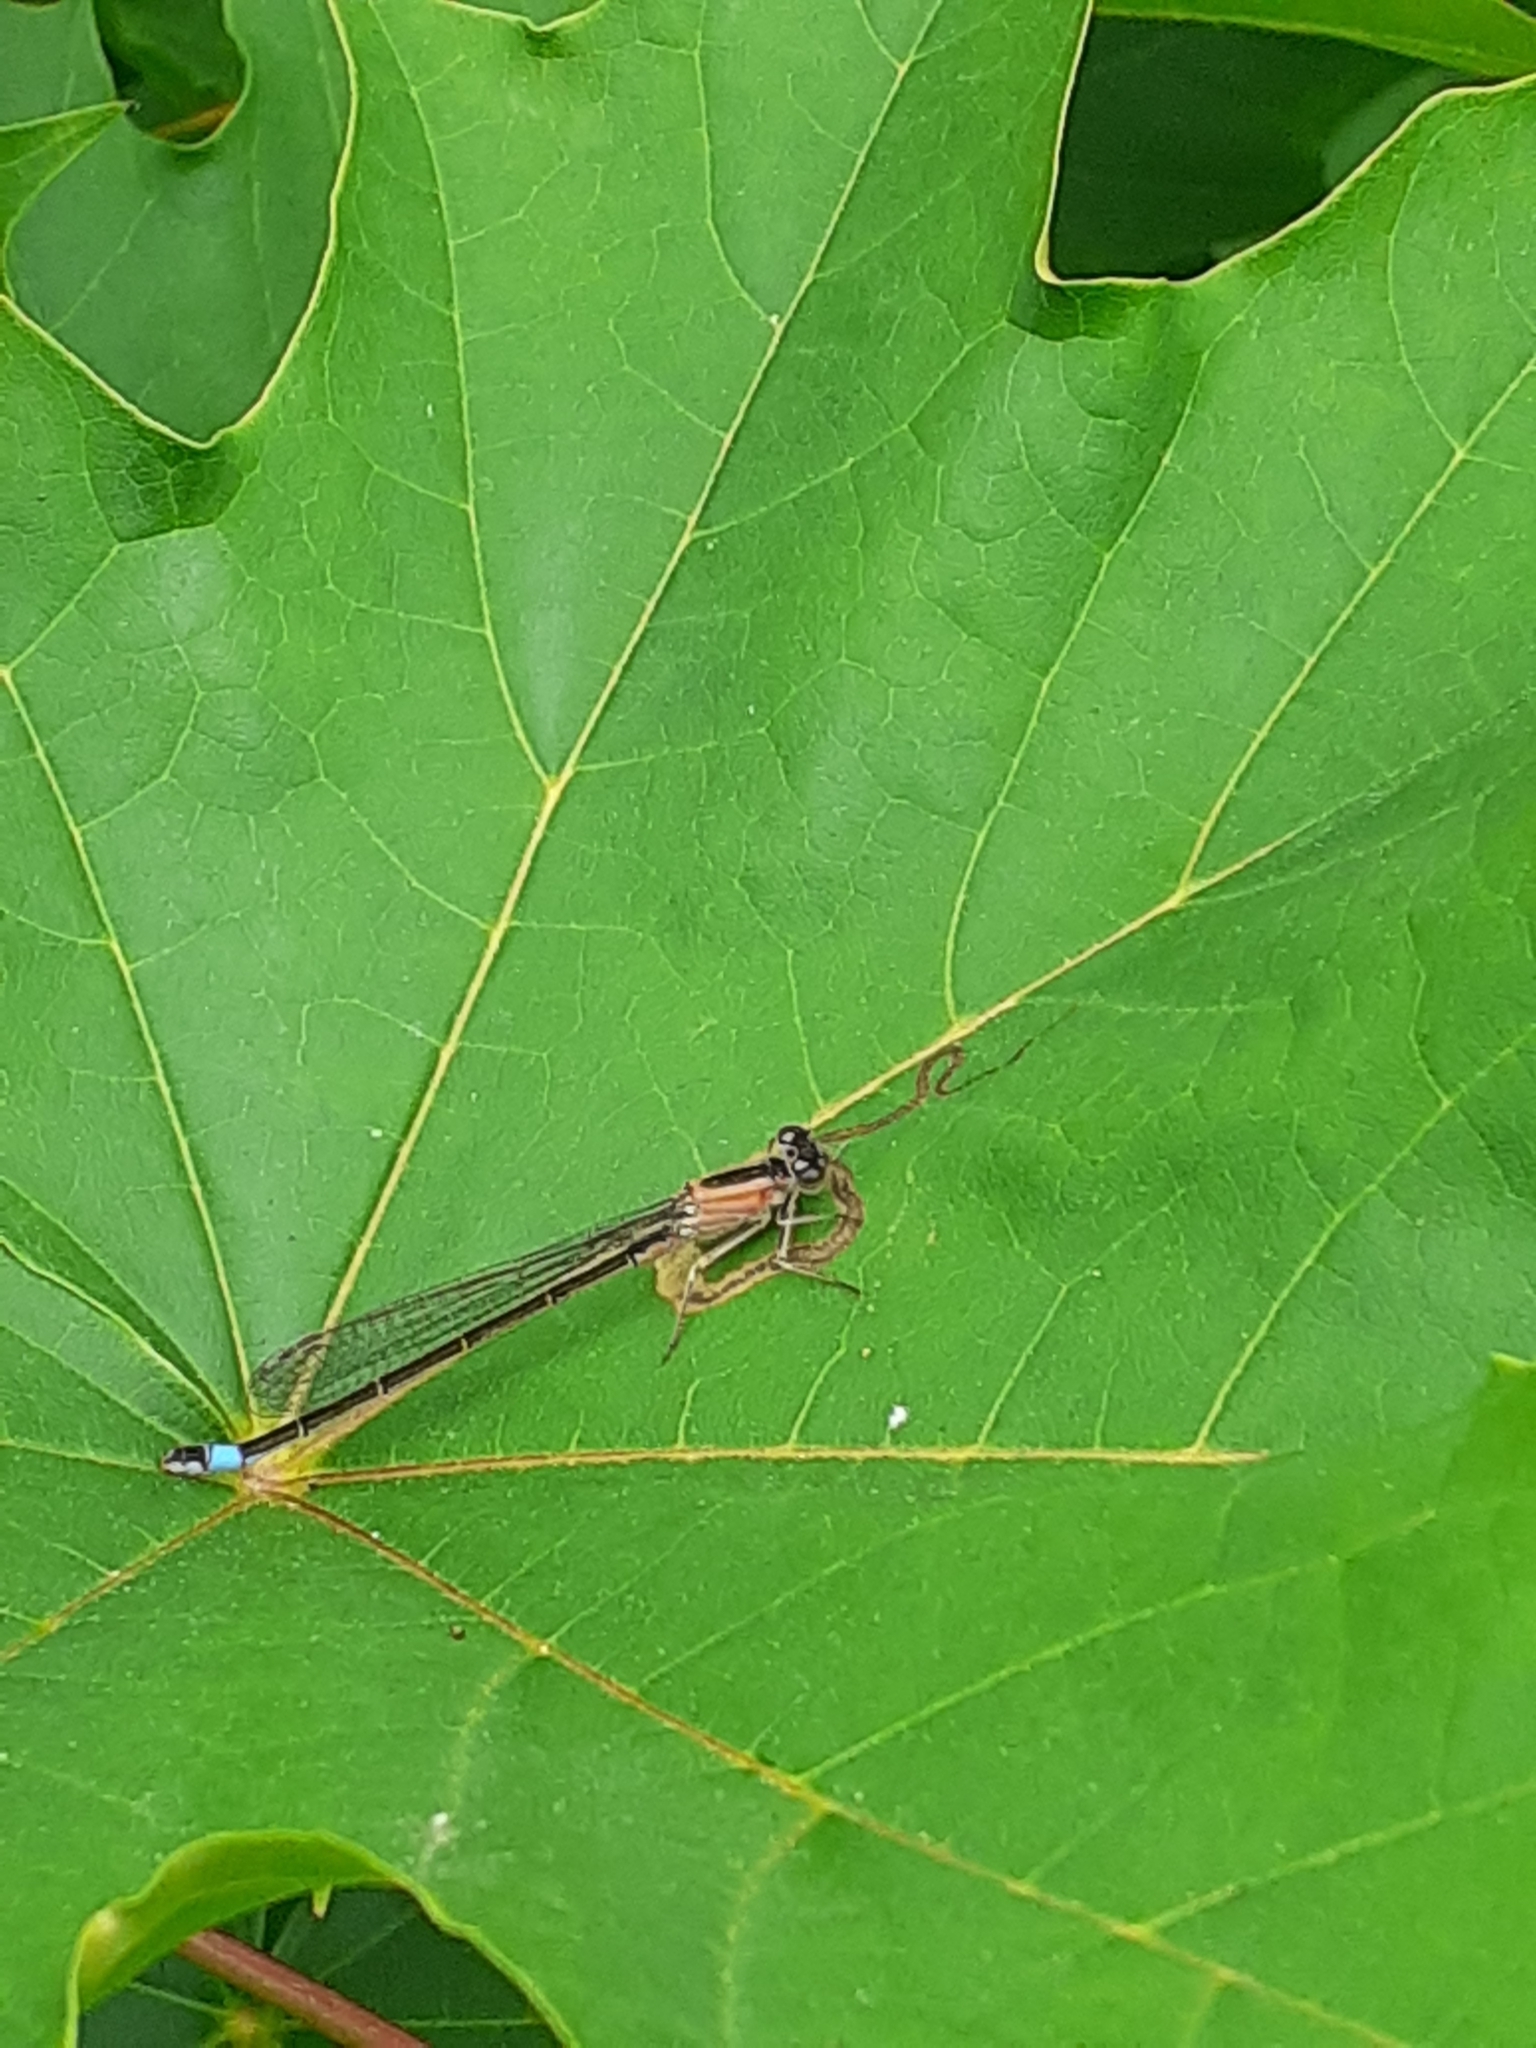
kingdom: Animalia
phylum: Arthropoda
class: Insecta
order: Odonata
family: Coenagrionidae
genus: Ischnura
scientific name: Ischnura elegans
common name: Blue-tailed damselfly
